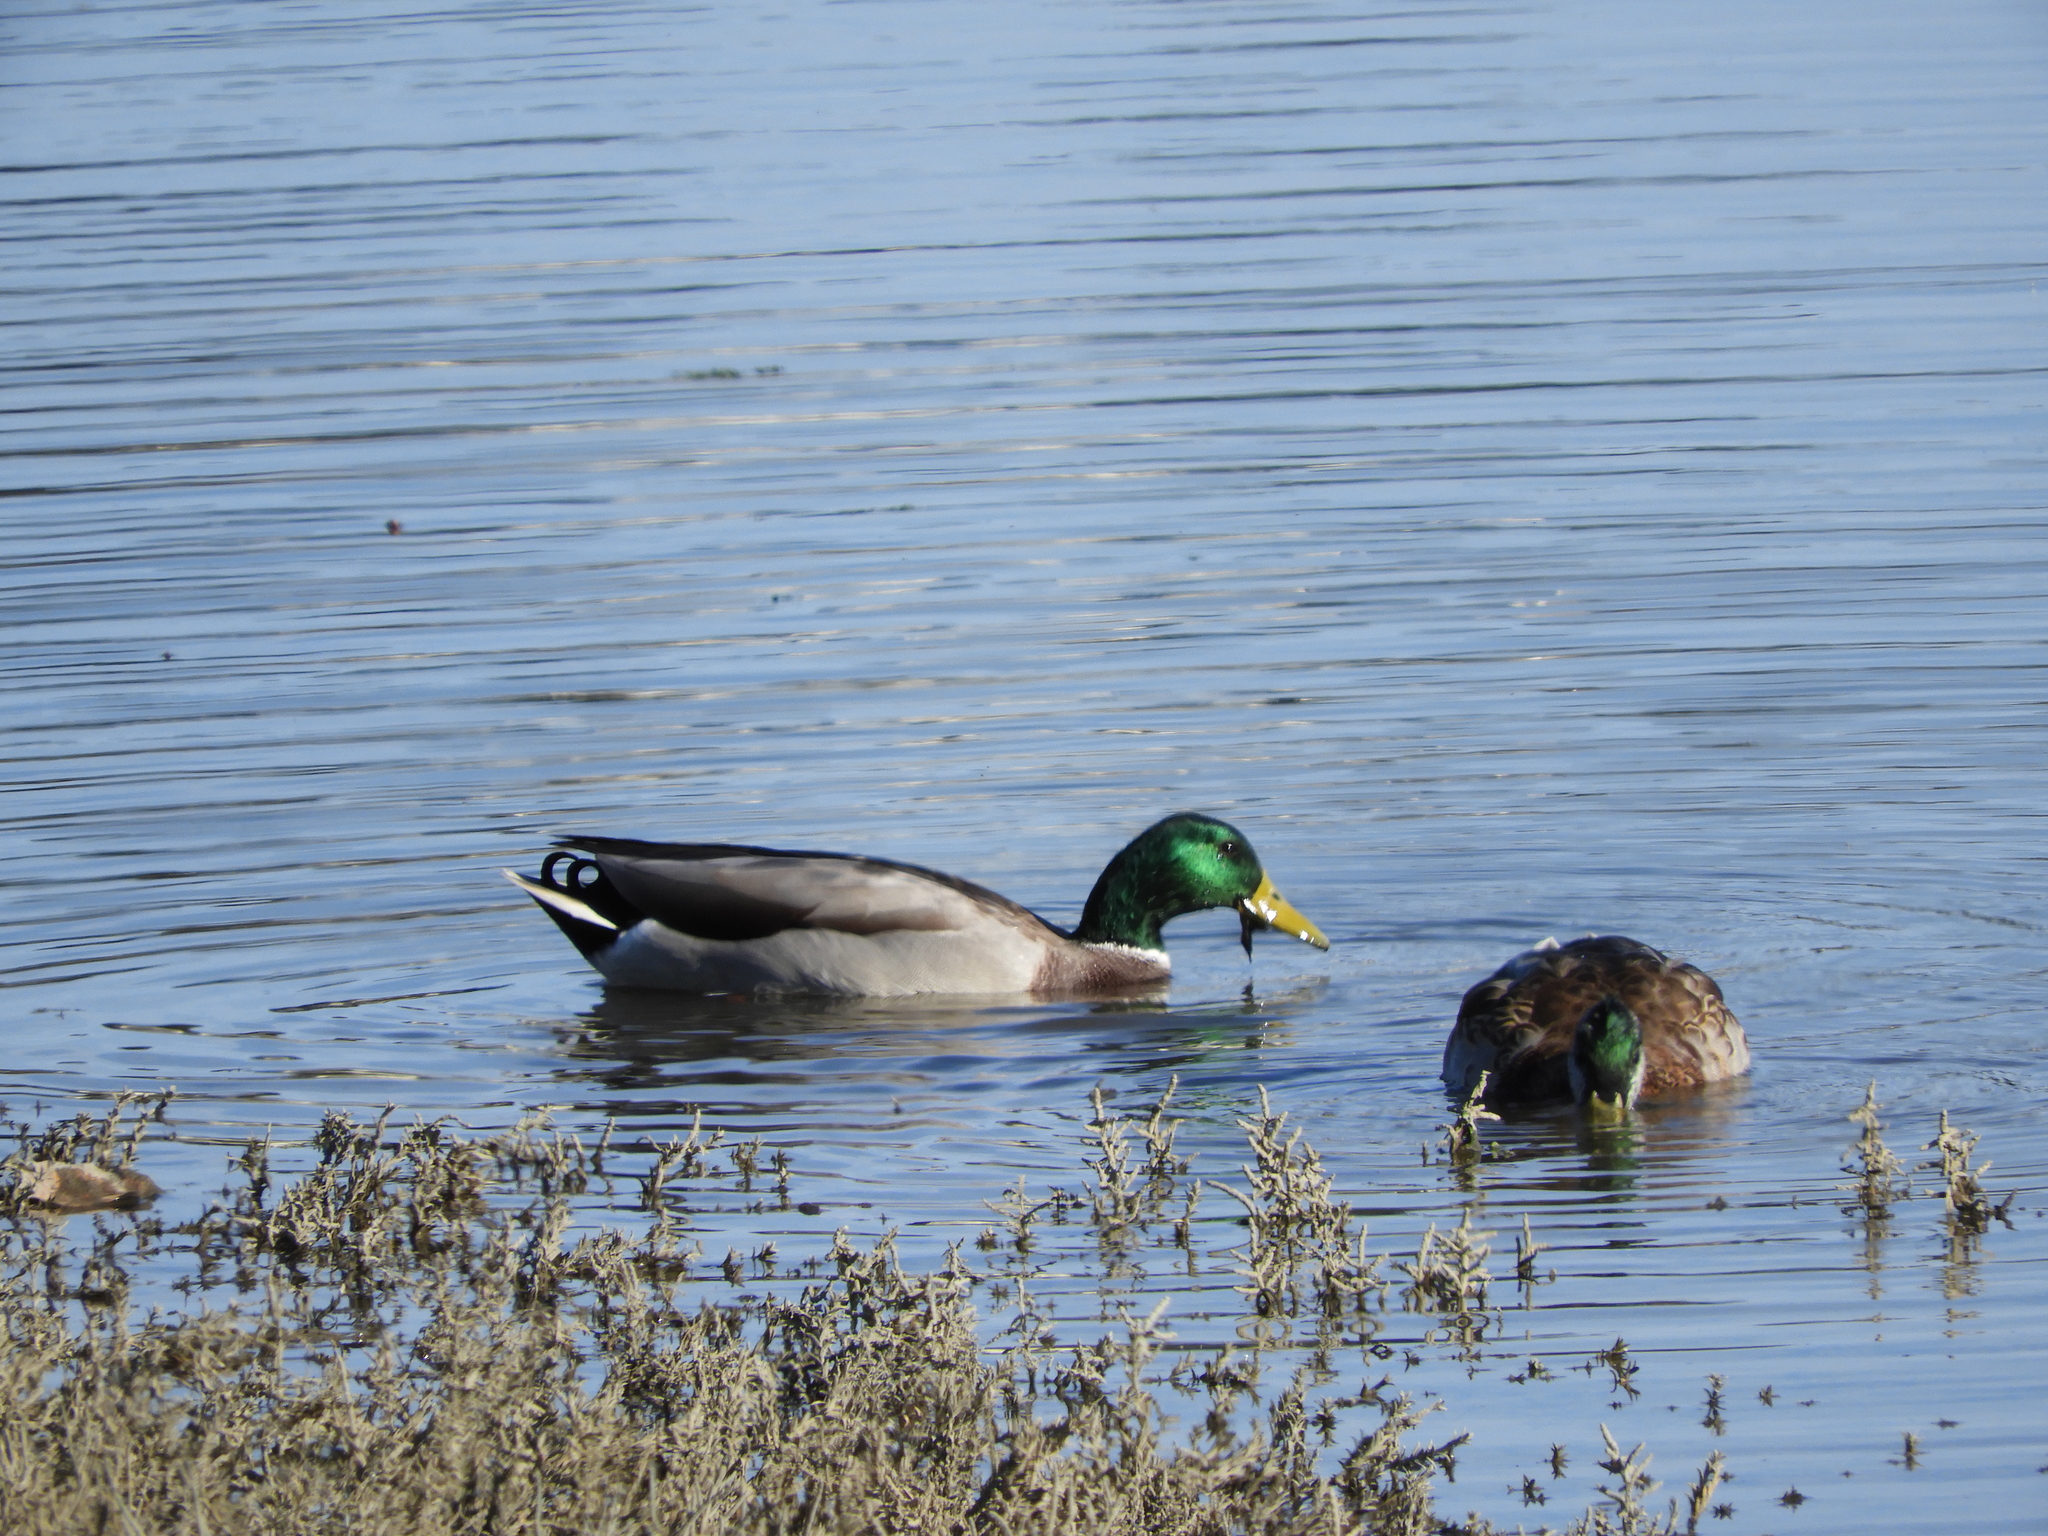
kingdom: Animalia
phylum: Chordata
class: Aves
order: Anseriformes
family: Anatidae
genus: Anas
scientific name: Anas platyrhynchos
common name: Mallard
